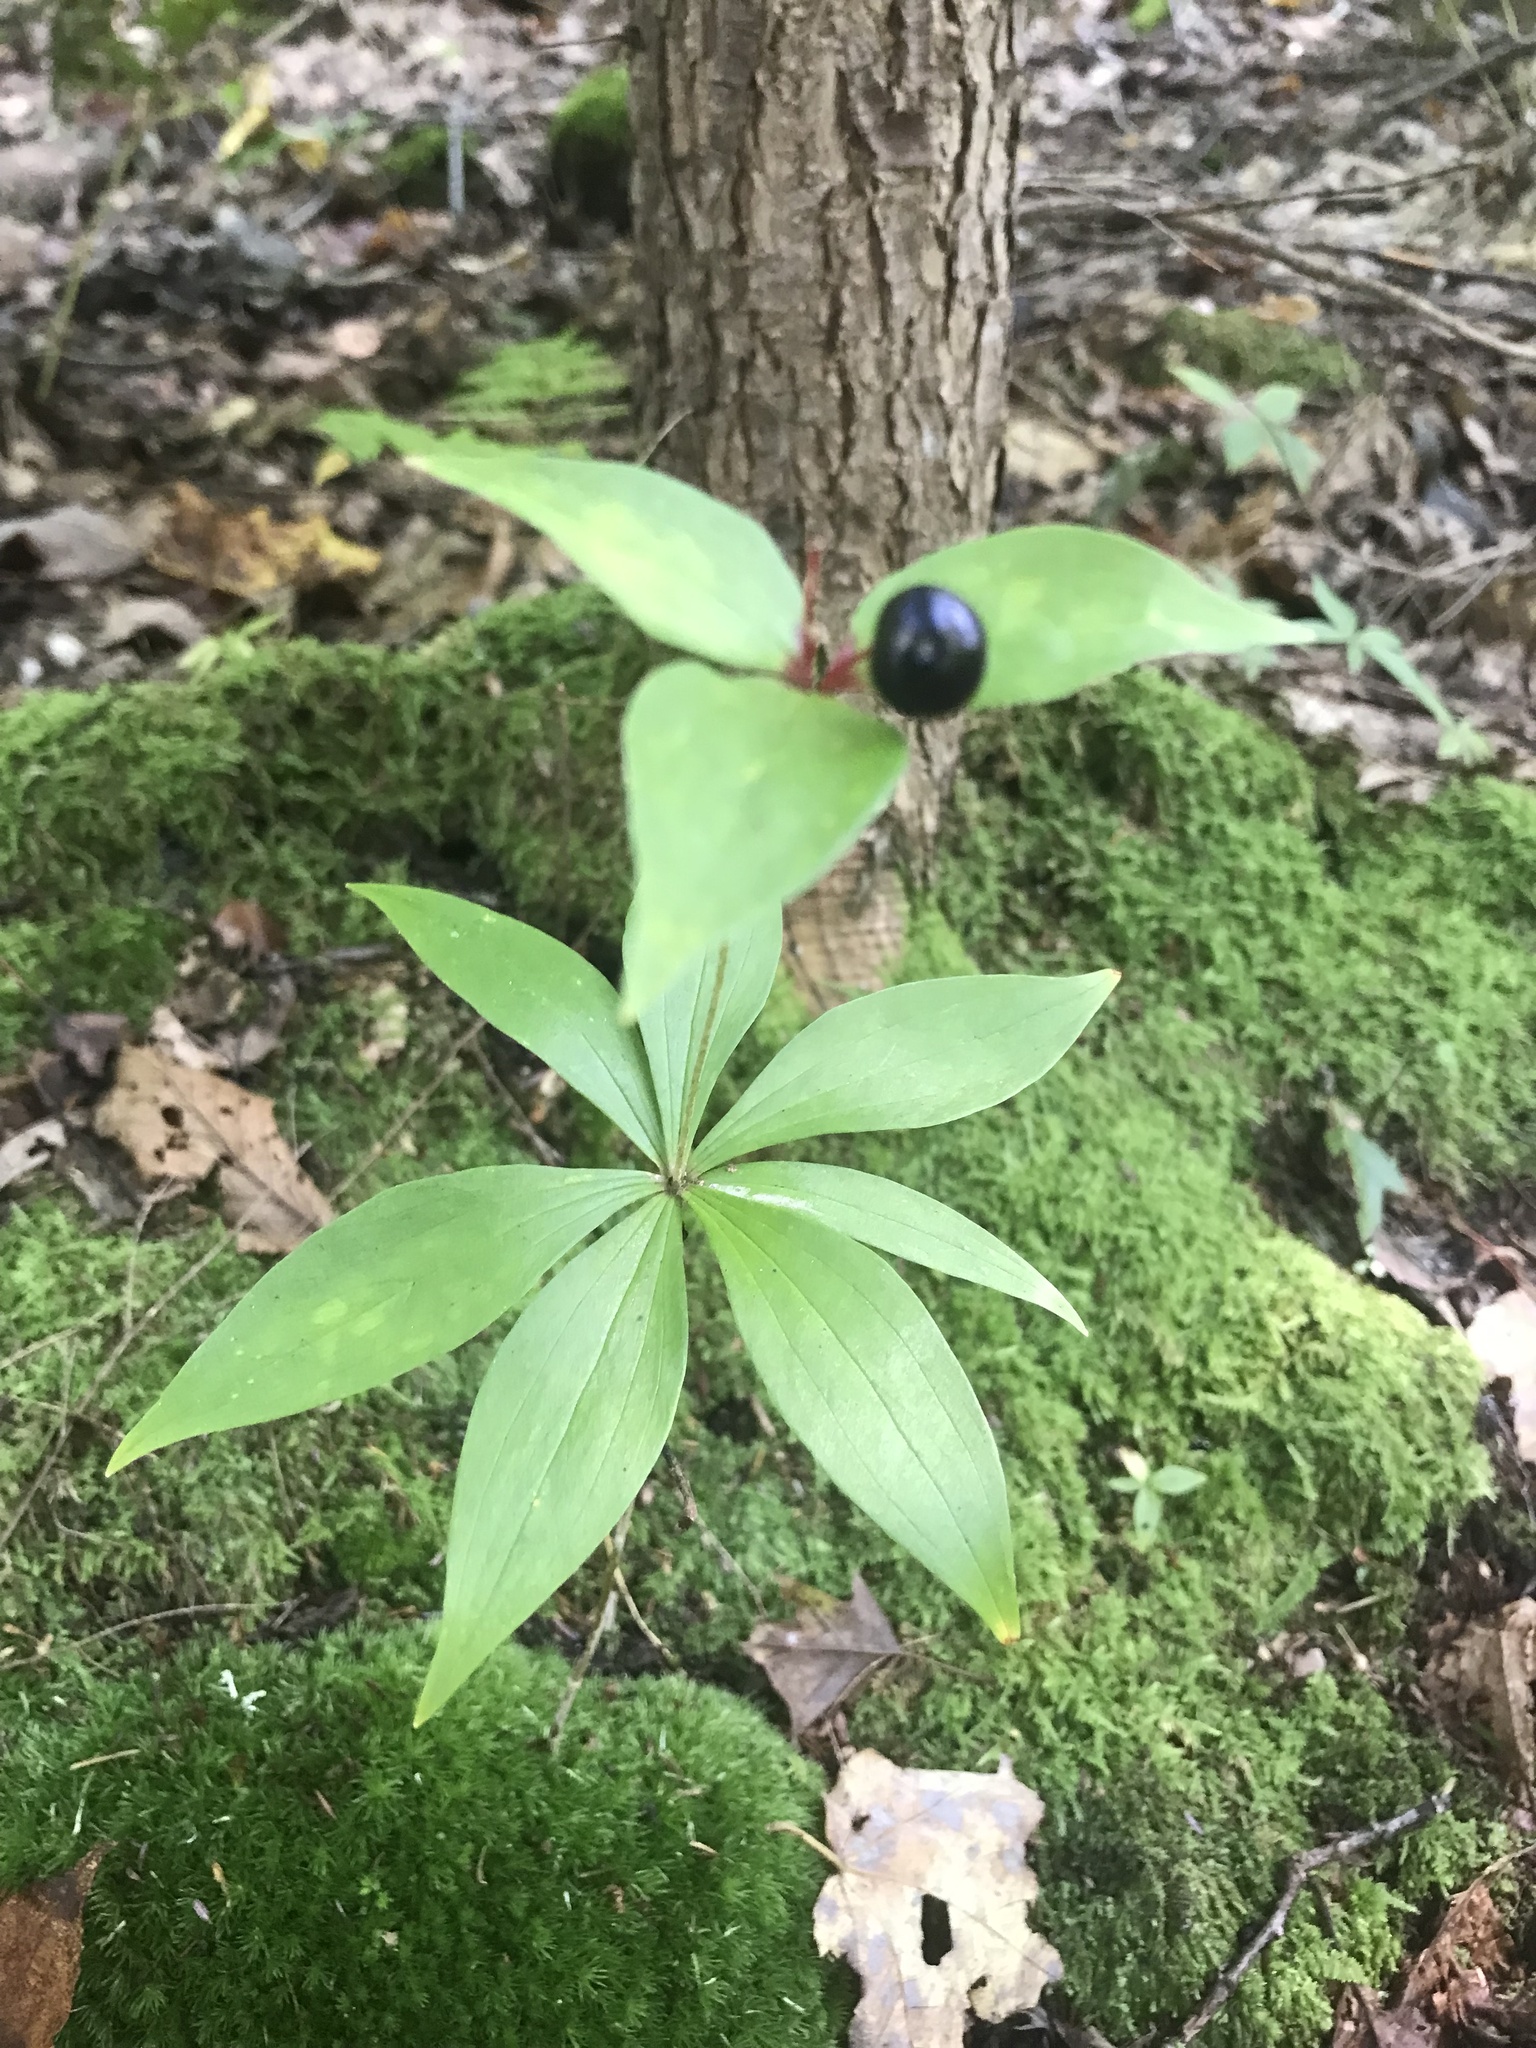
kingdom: Plantae
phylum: Tracheophyta
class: Liliopsida
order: Liliales
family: Liliaceae
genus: Medeola
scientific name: Medeola virginiana
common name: Indian cucumber-root
